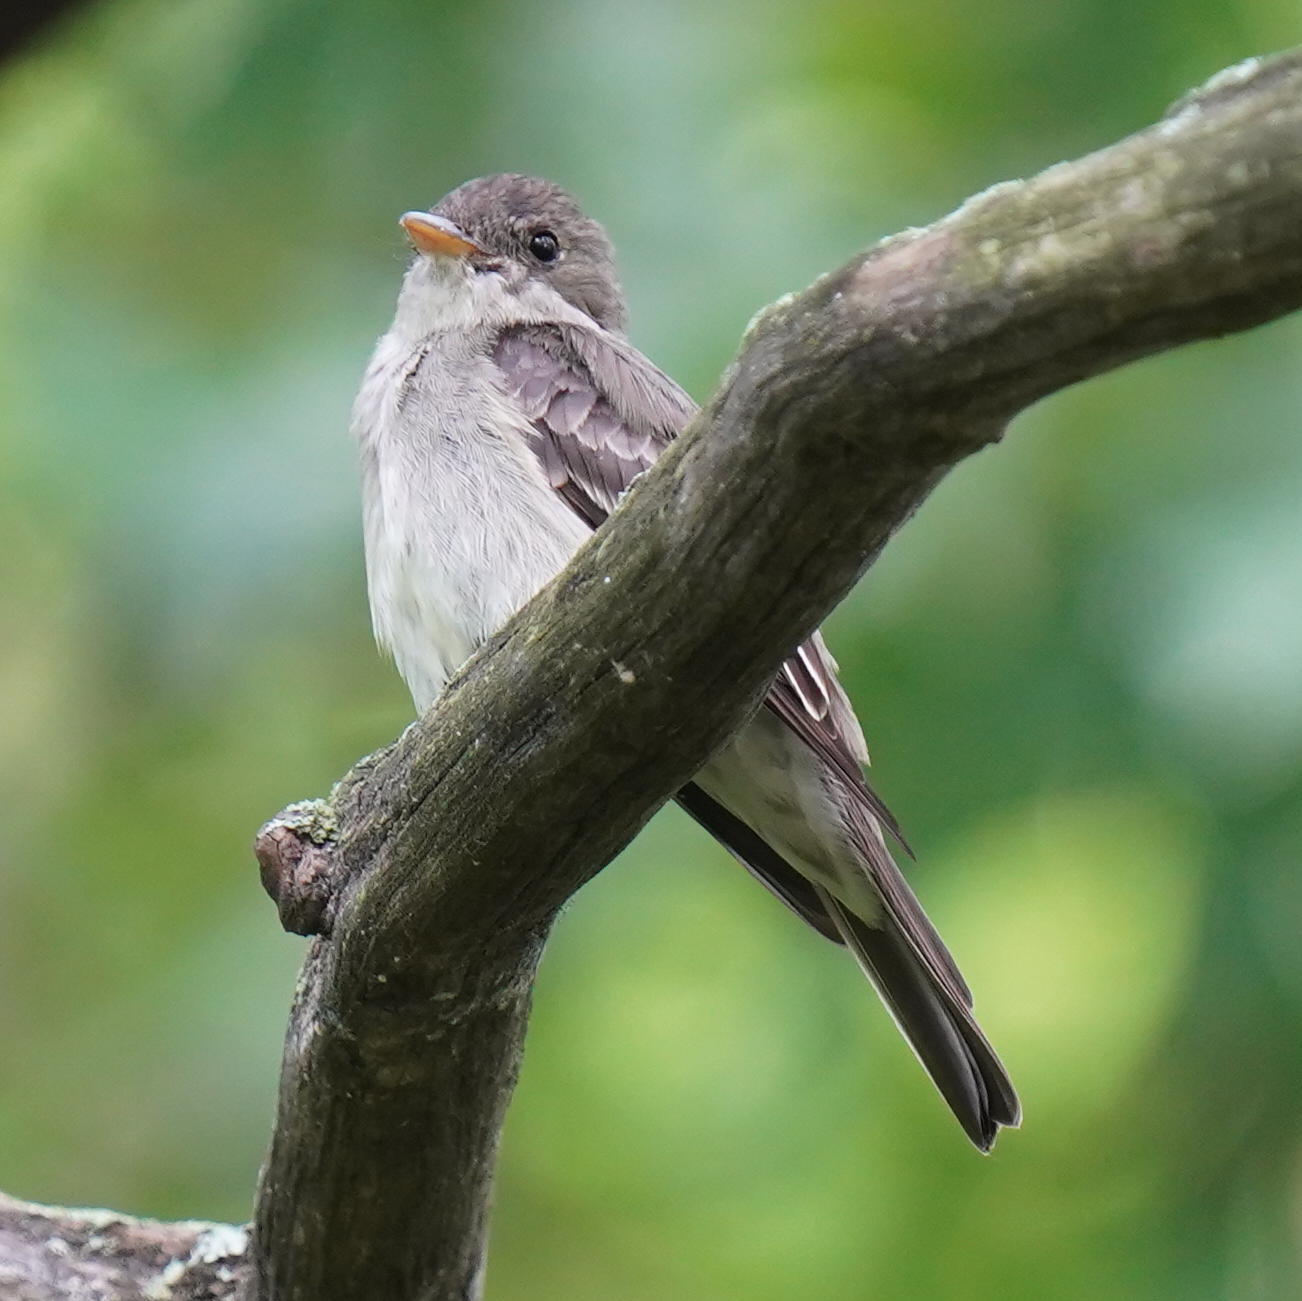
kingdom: Animalia
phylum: Chordata
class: Aves
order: Passeriformes
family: Tyrannidae
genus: Contopus
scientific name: Contopus virens
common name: Eastern wood-pewee
